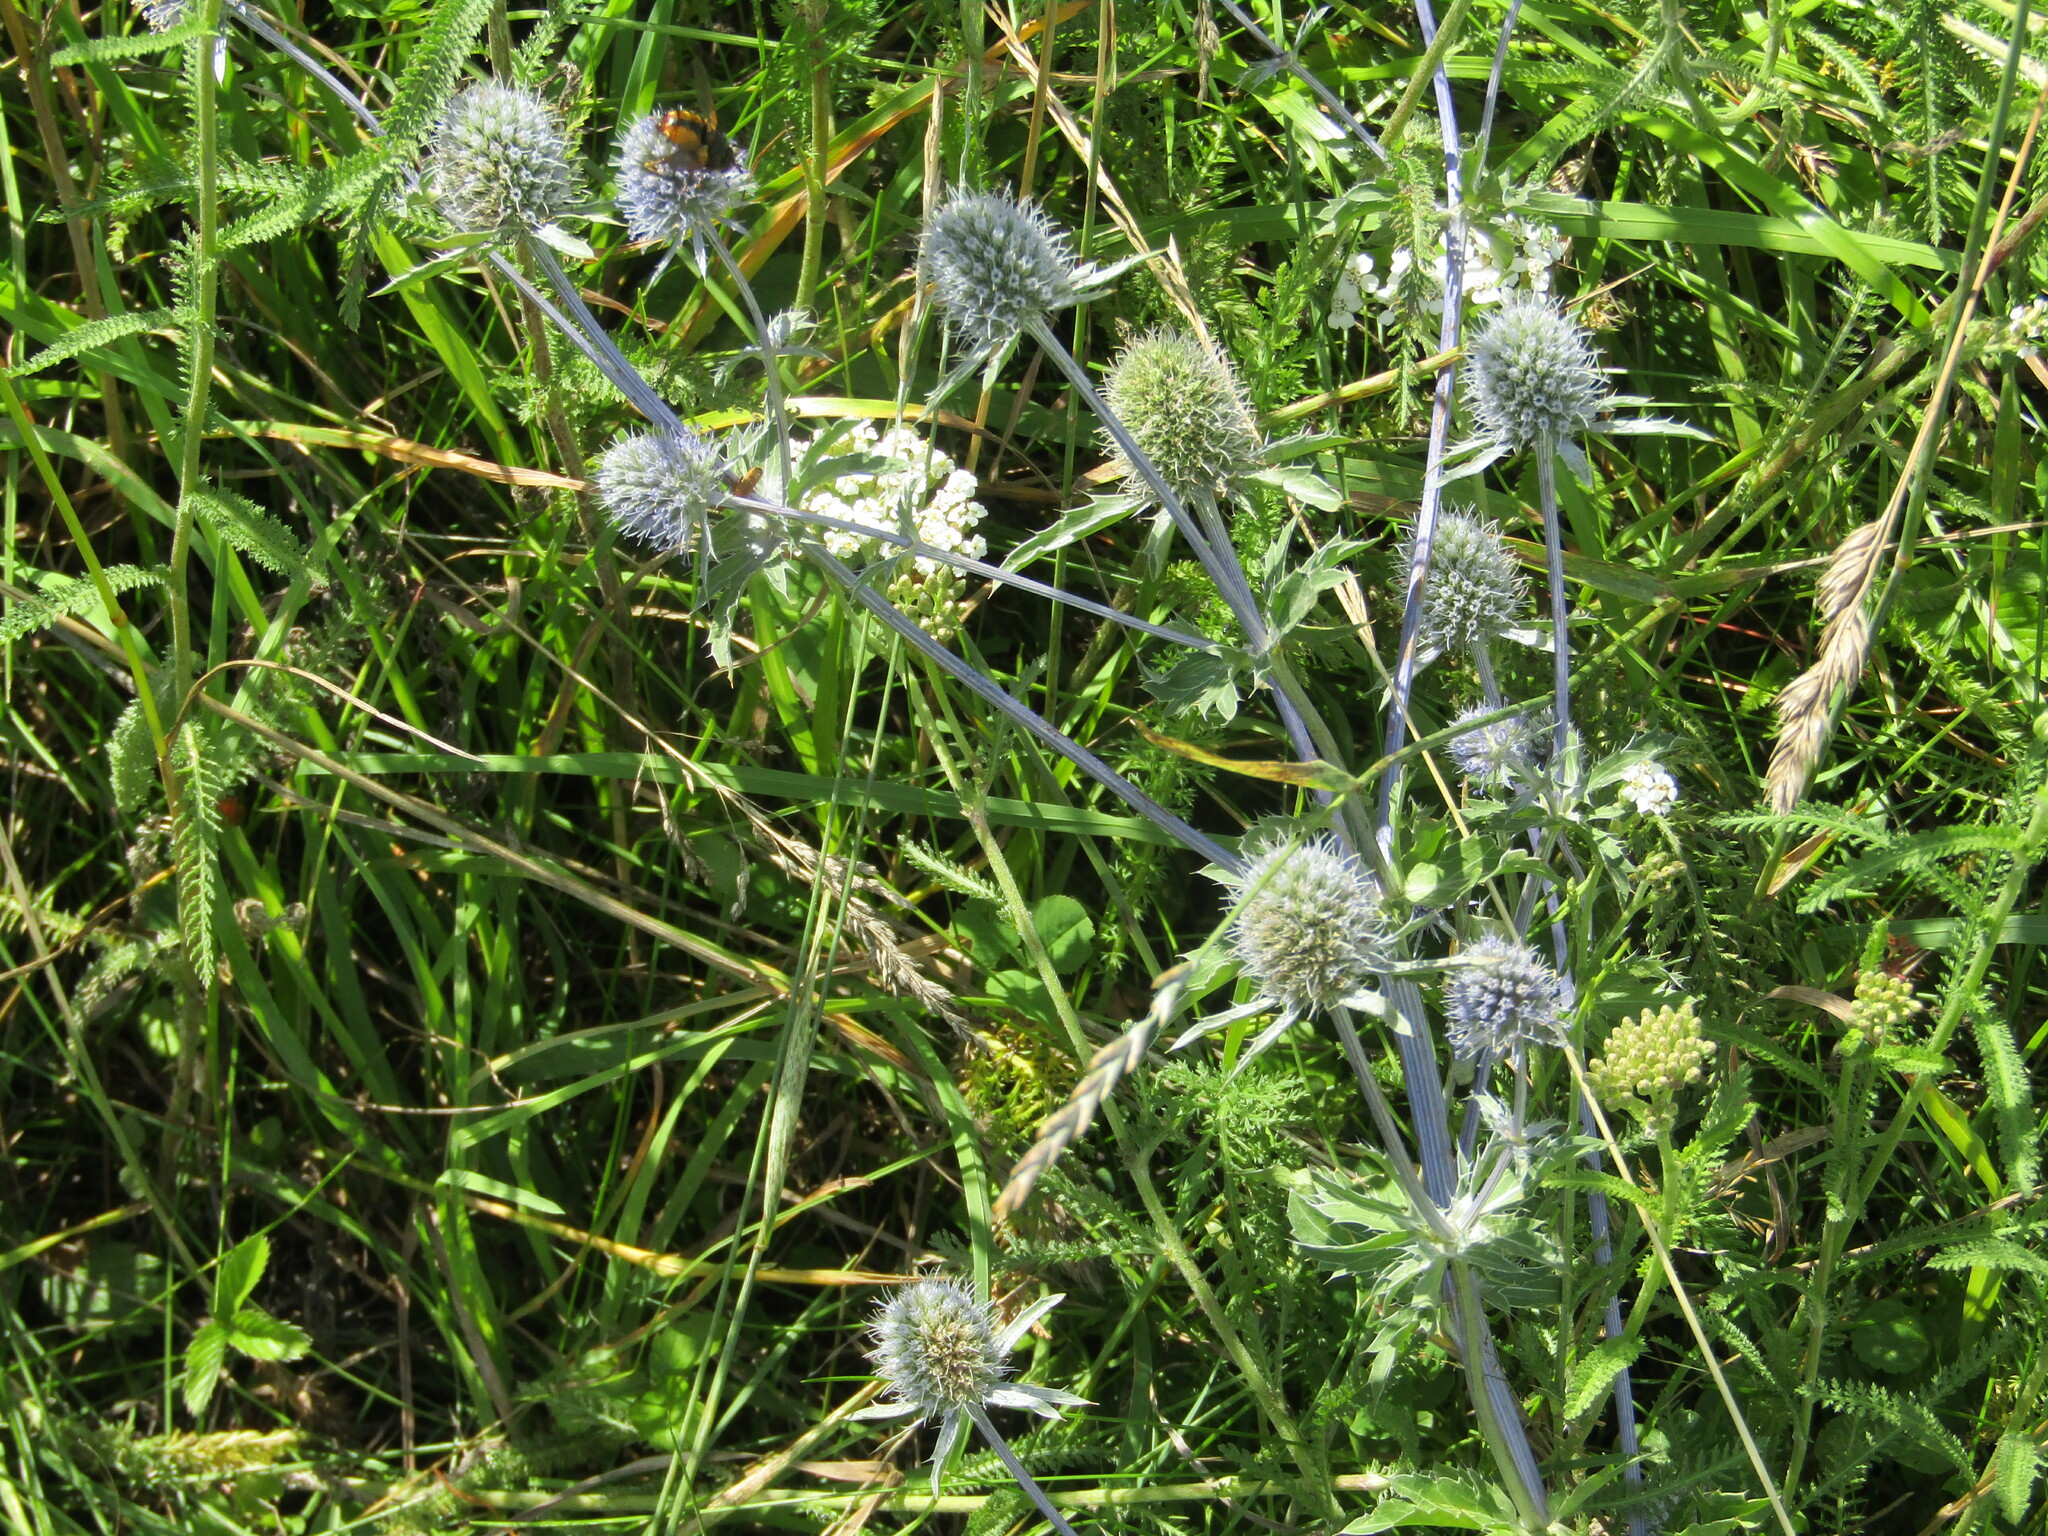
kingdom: Plantae
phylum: Tracheophyta
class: Magnoliopsida
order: Apiales
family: Apiaceae
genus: Eryngium
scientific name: Eryngium planum
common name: Blue eryngo
